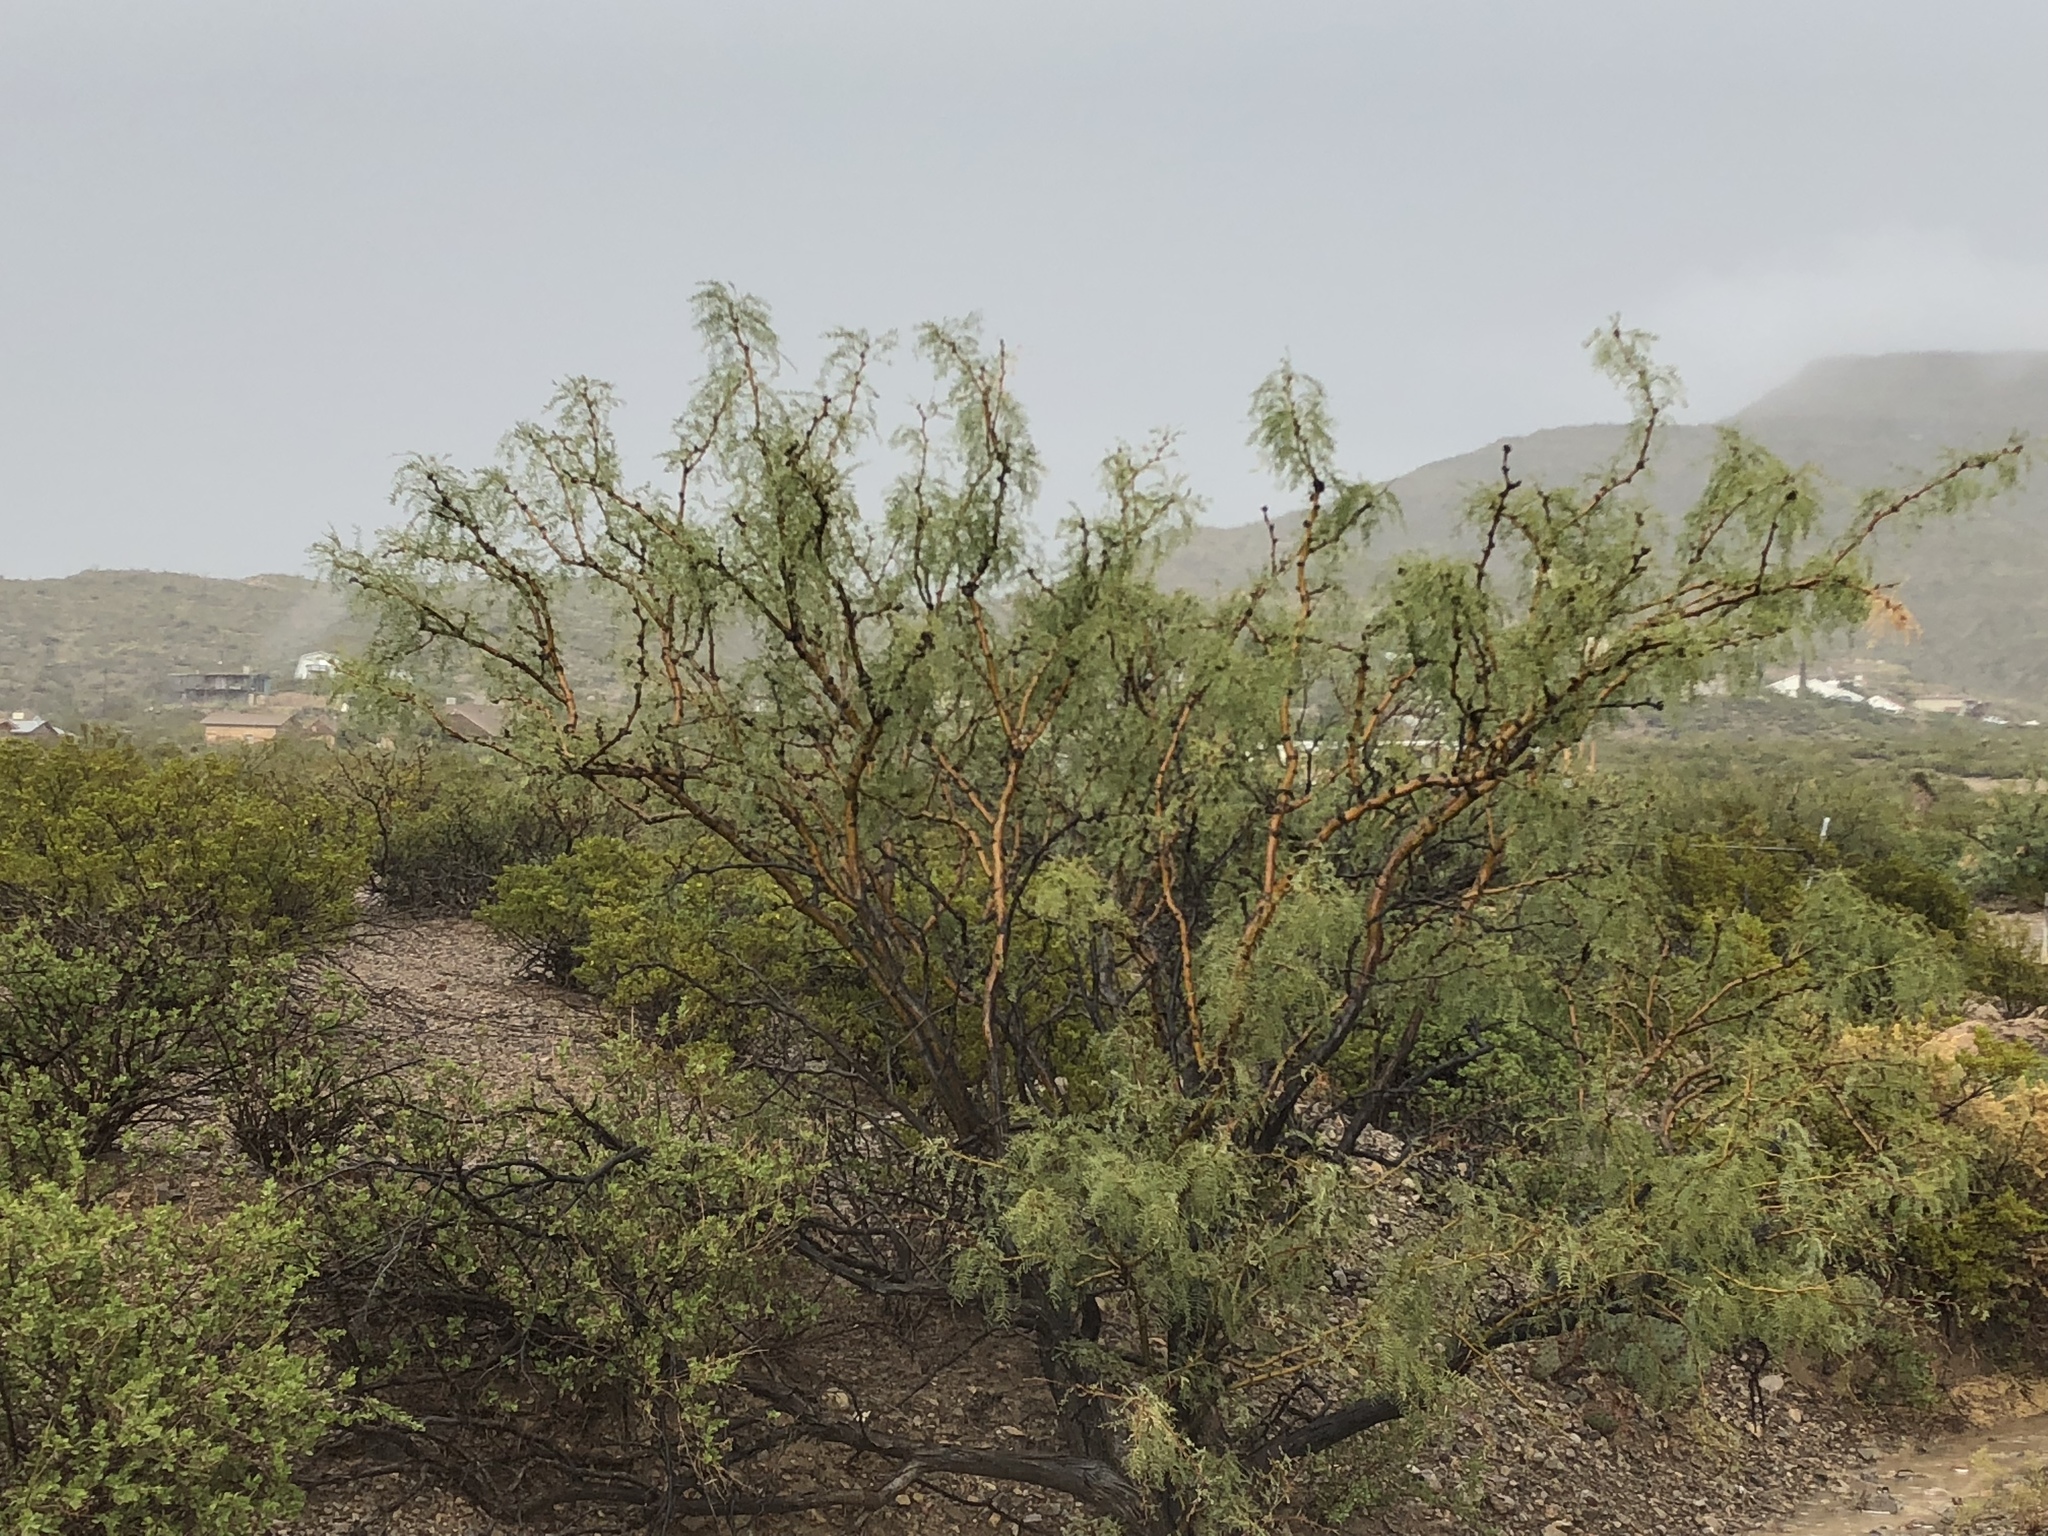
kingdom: Plantae
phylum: Tracheophyta
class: Magnoliopsida
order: Fabales
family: Fabaceae
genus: Prosopis
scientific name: Prosopis glandulosa
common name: Honey mesquite
